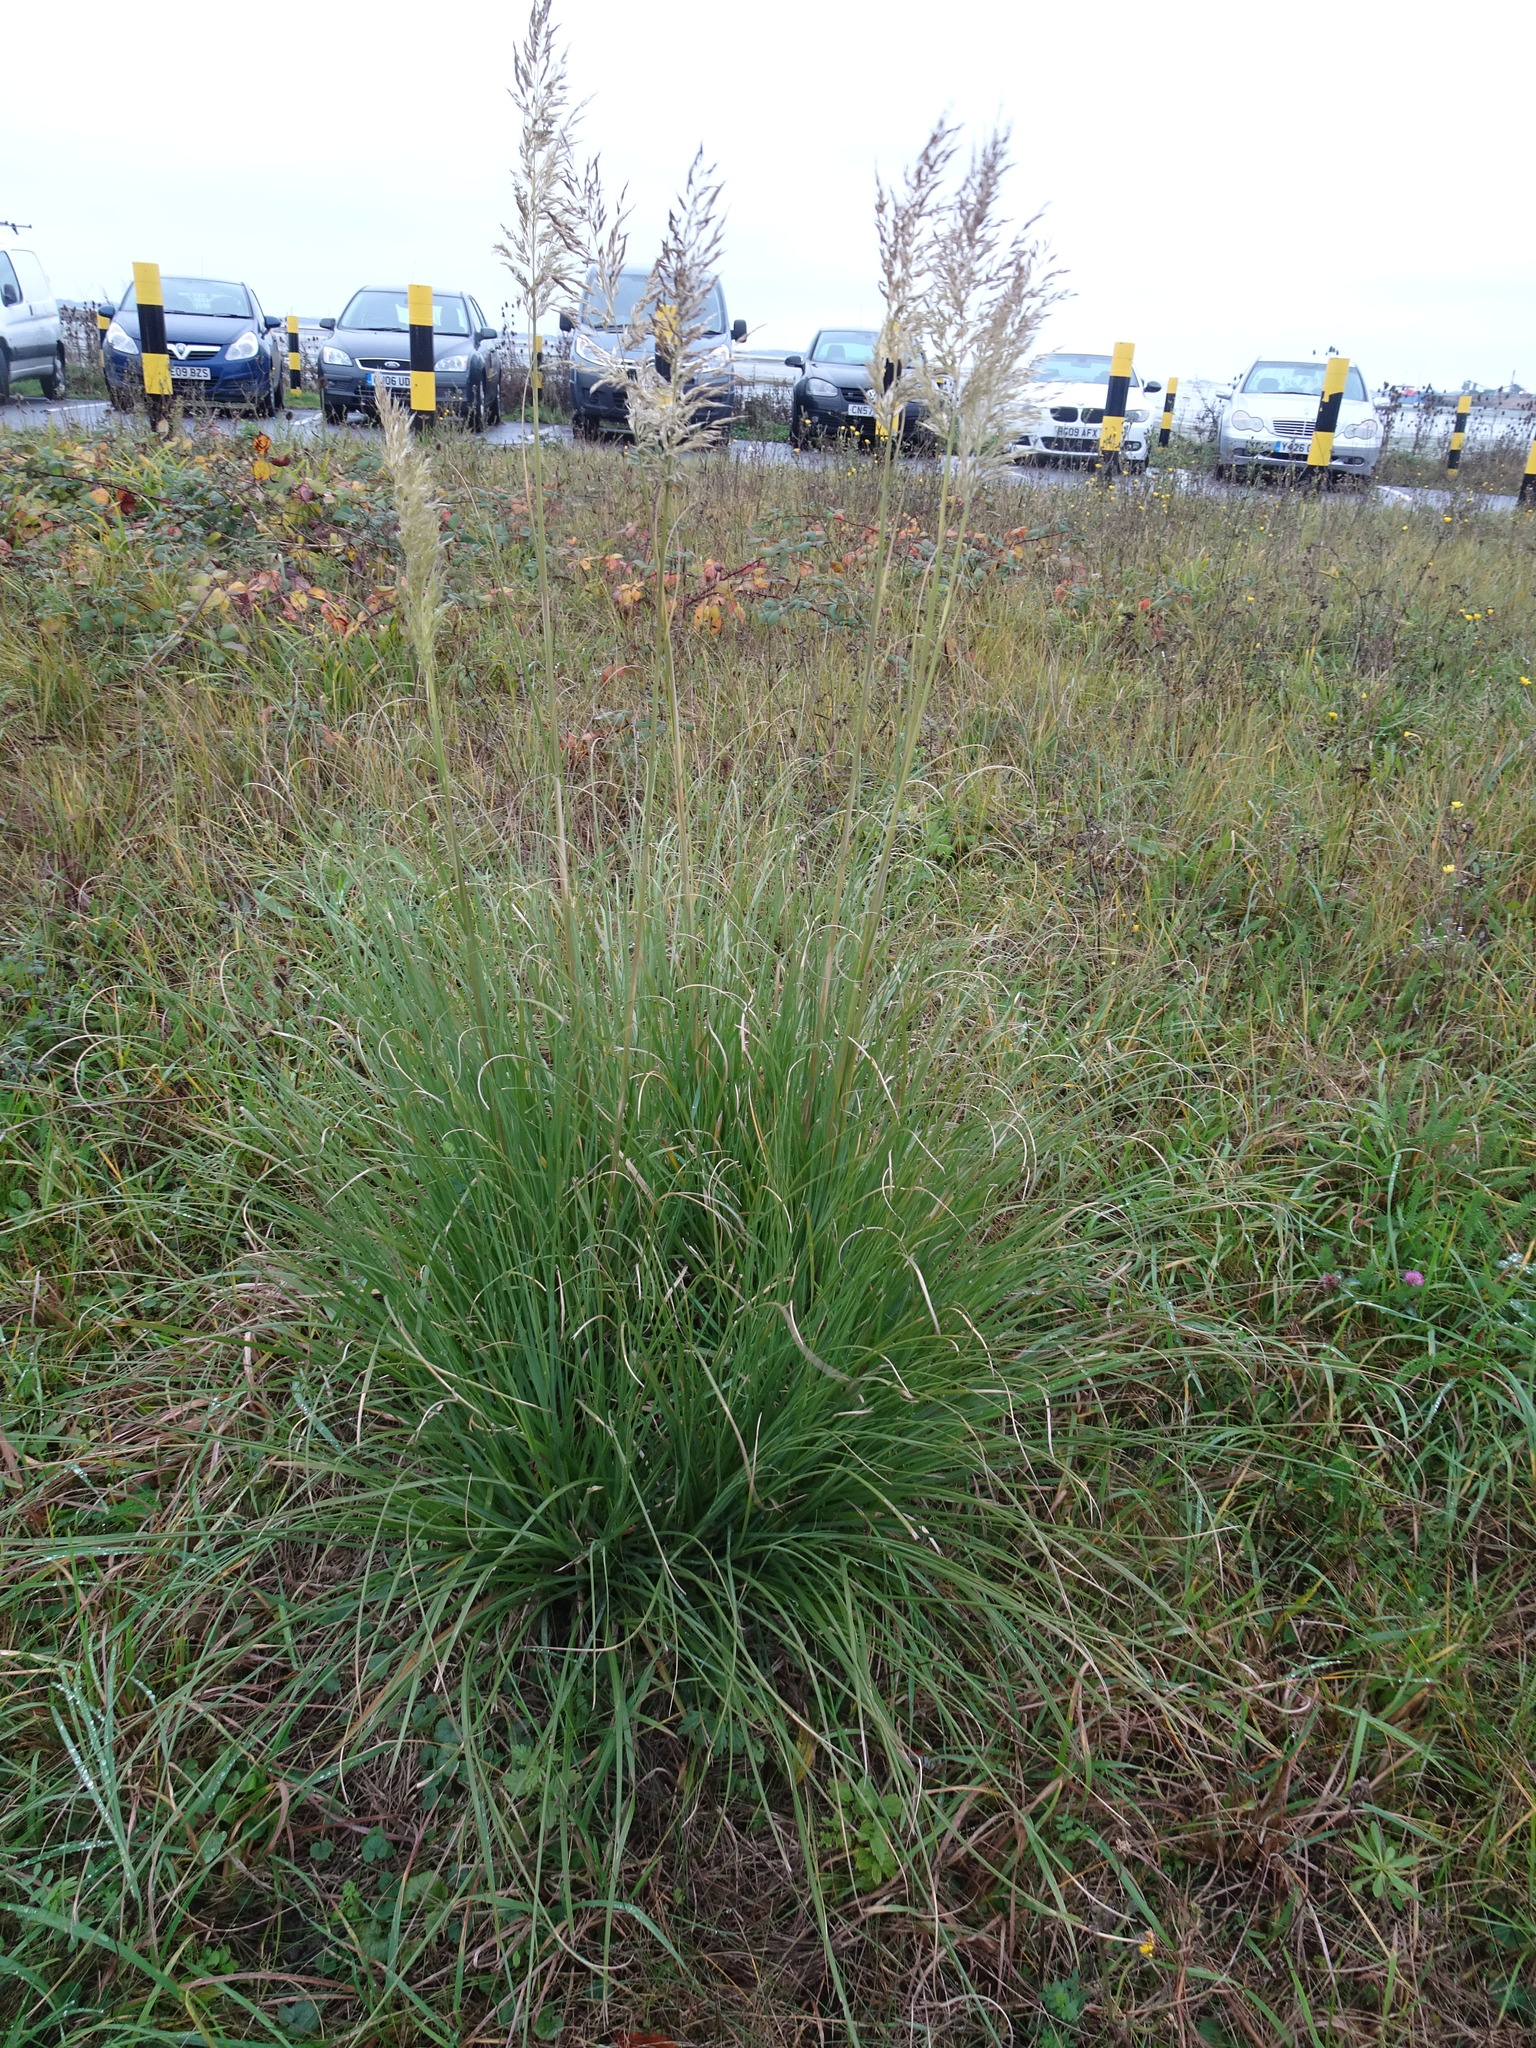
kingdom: Plantae
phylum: Tracheophyta
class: Liliopsida
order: Poales
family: Poaceae
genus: Cortaderia
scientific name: Cortaderia selloana
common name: Uruguayan pampas grass
